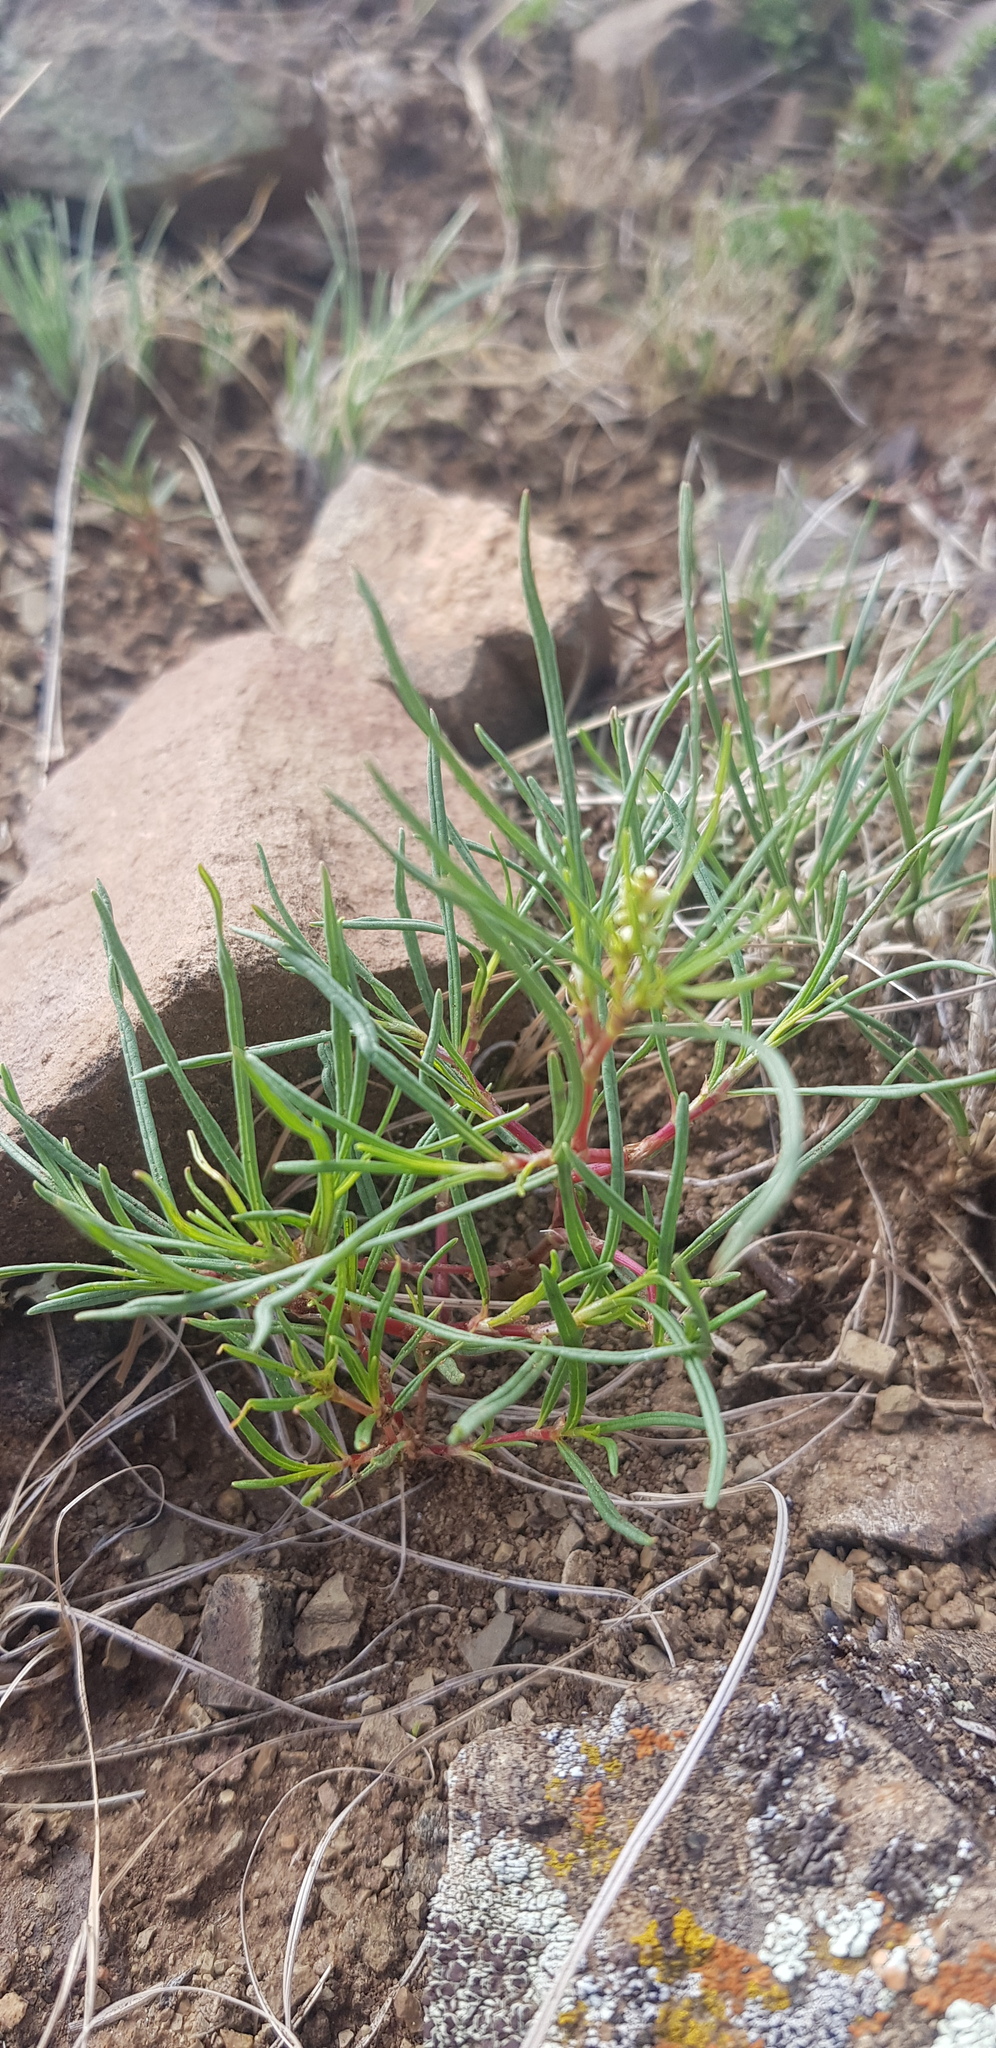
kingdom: Plantae
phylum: Tracheophyta
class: Magnoliopsida
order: Caryophyllales
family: Polygonaceae
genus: Persicaria
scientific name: Persicaria angustifolia
